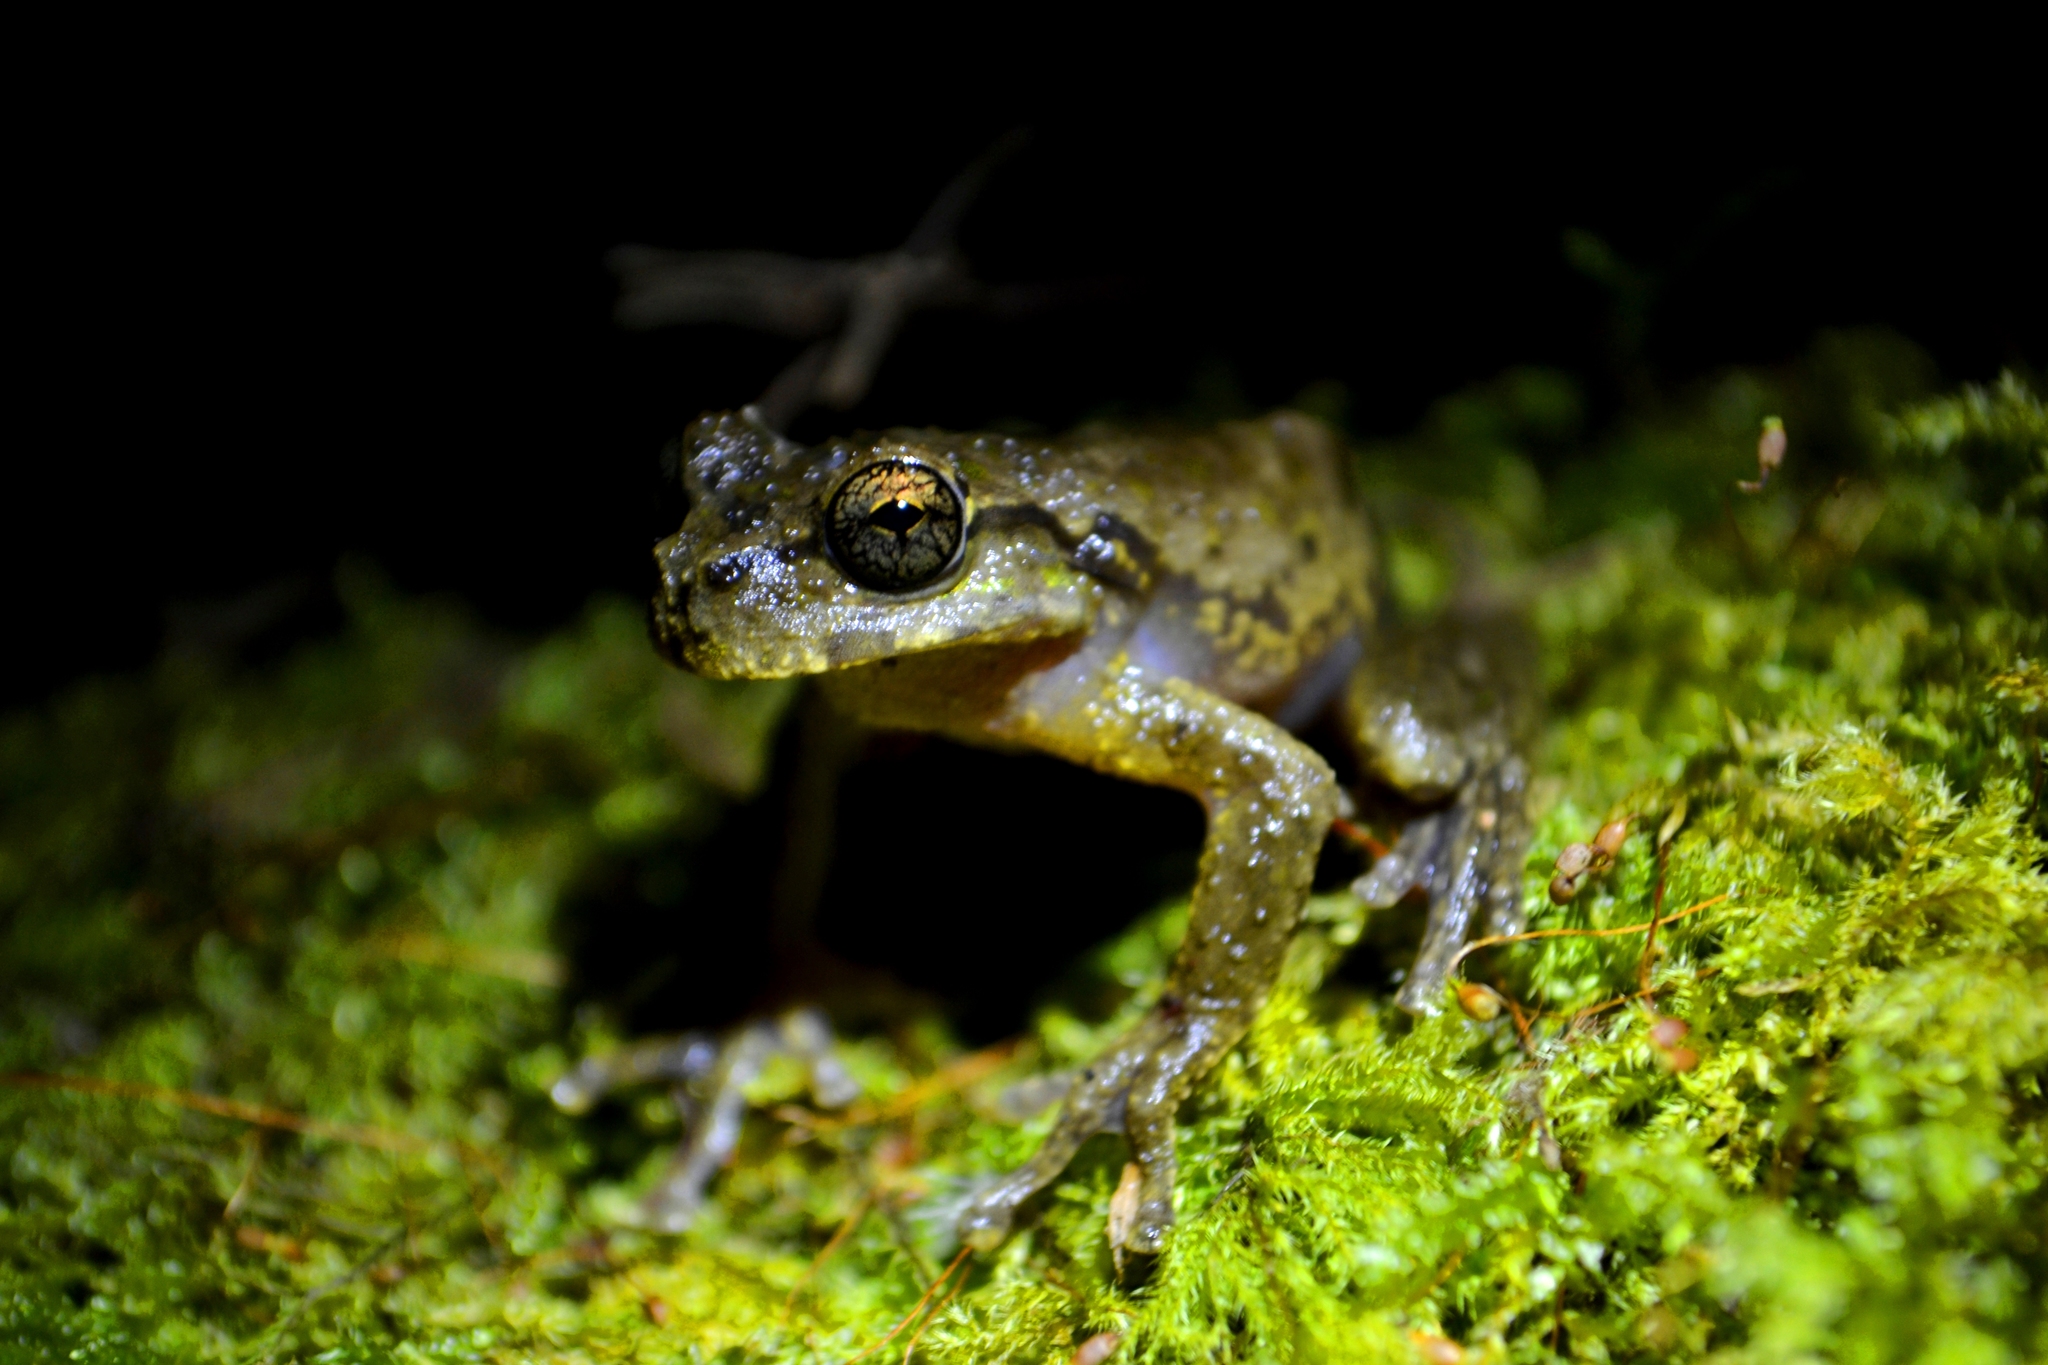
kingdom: Animalia
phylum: Chordata
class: Amphibia
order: Anura
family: Hylidae
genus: Plectrohyla
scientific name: Plectrohyla matudai
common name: Matuda's spikethumb frog
